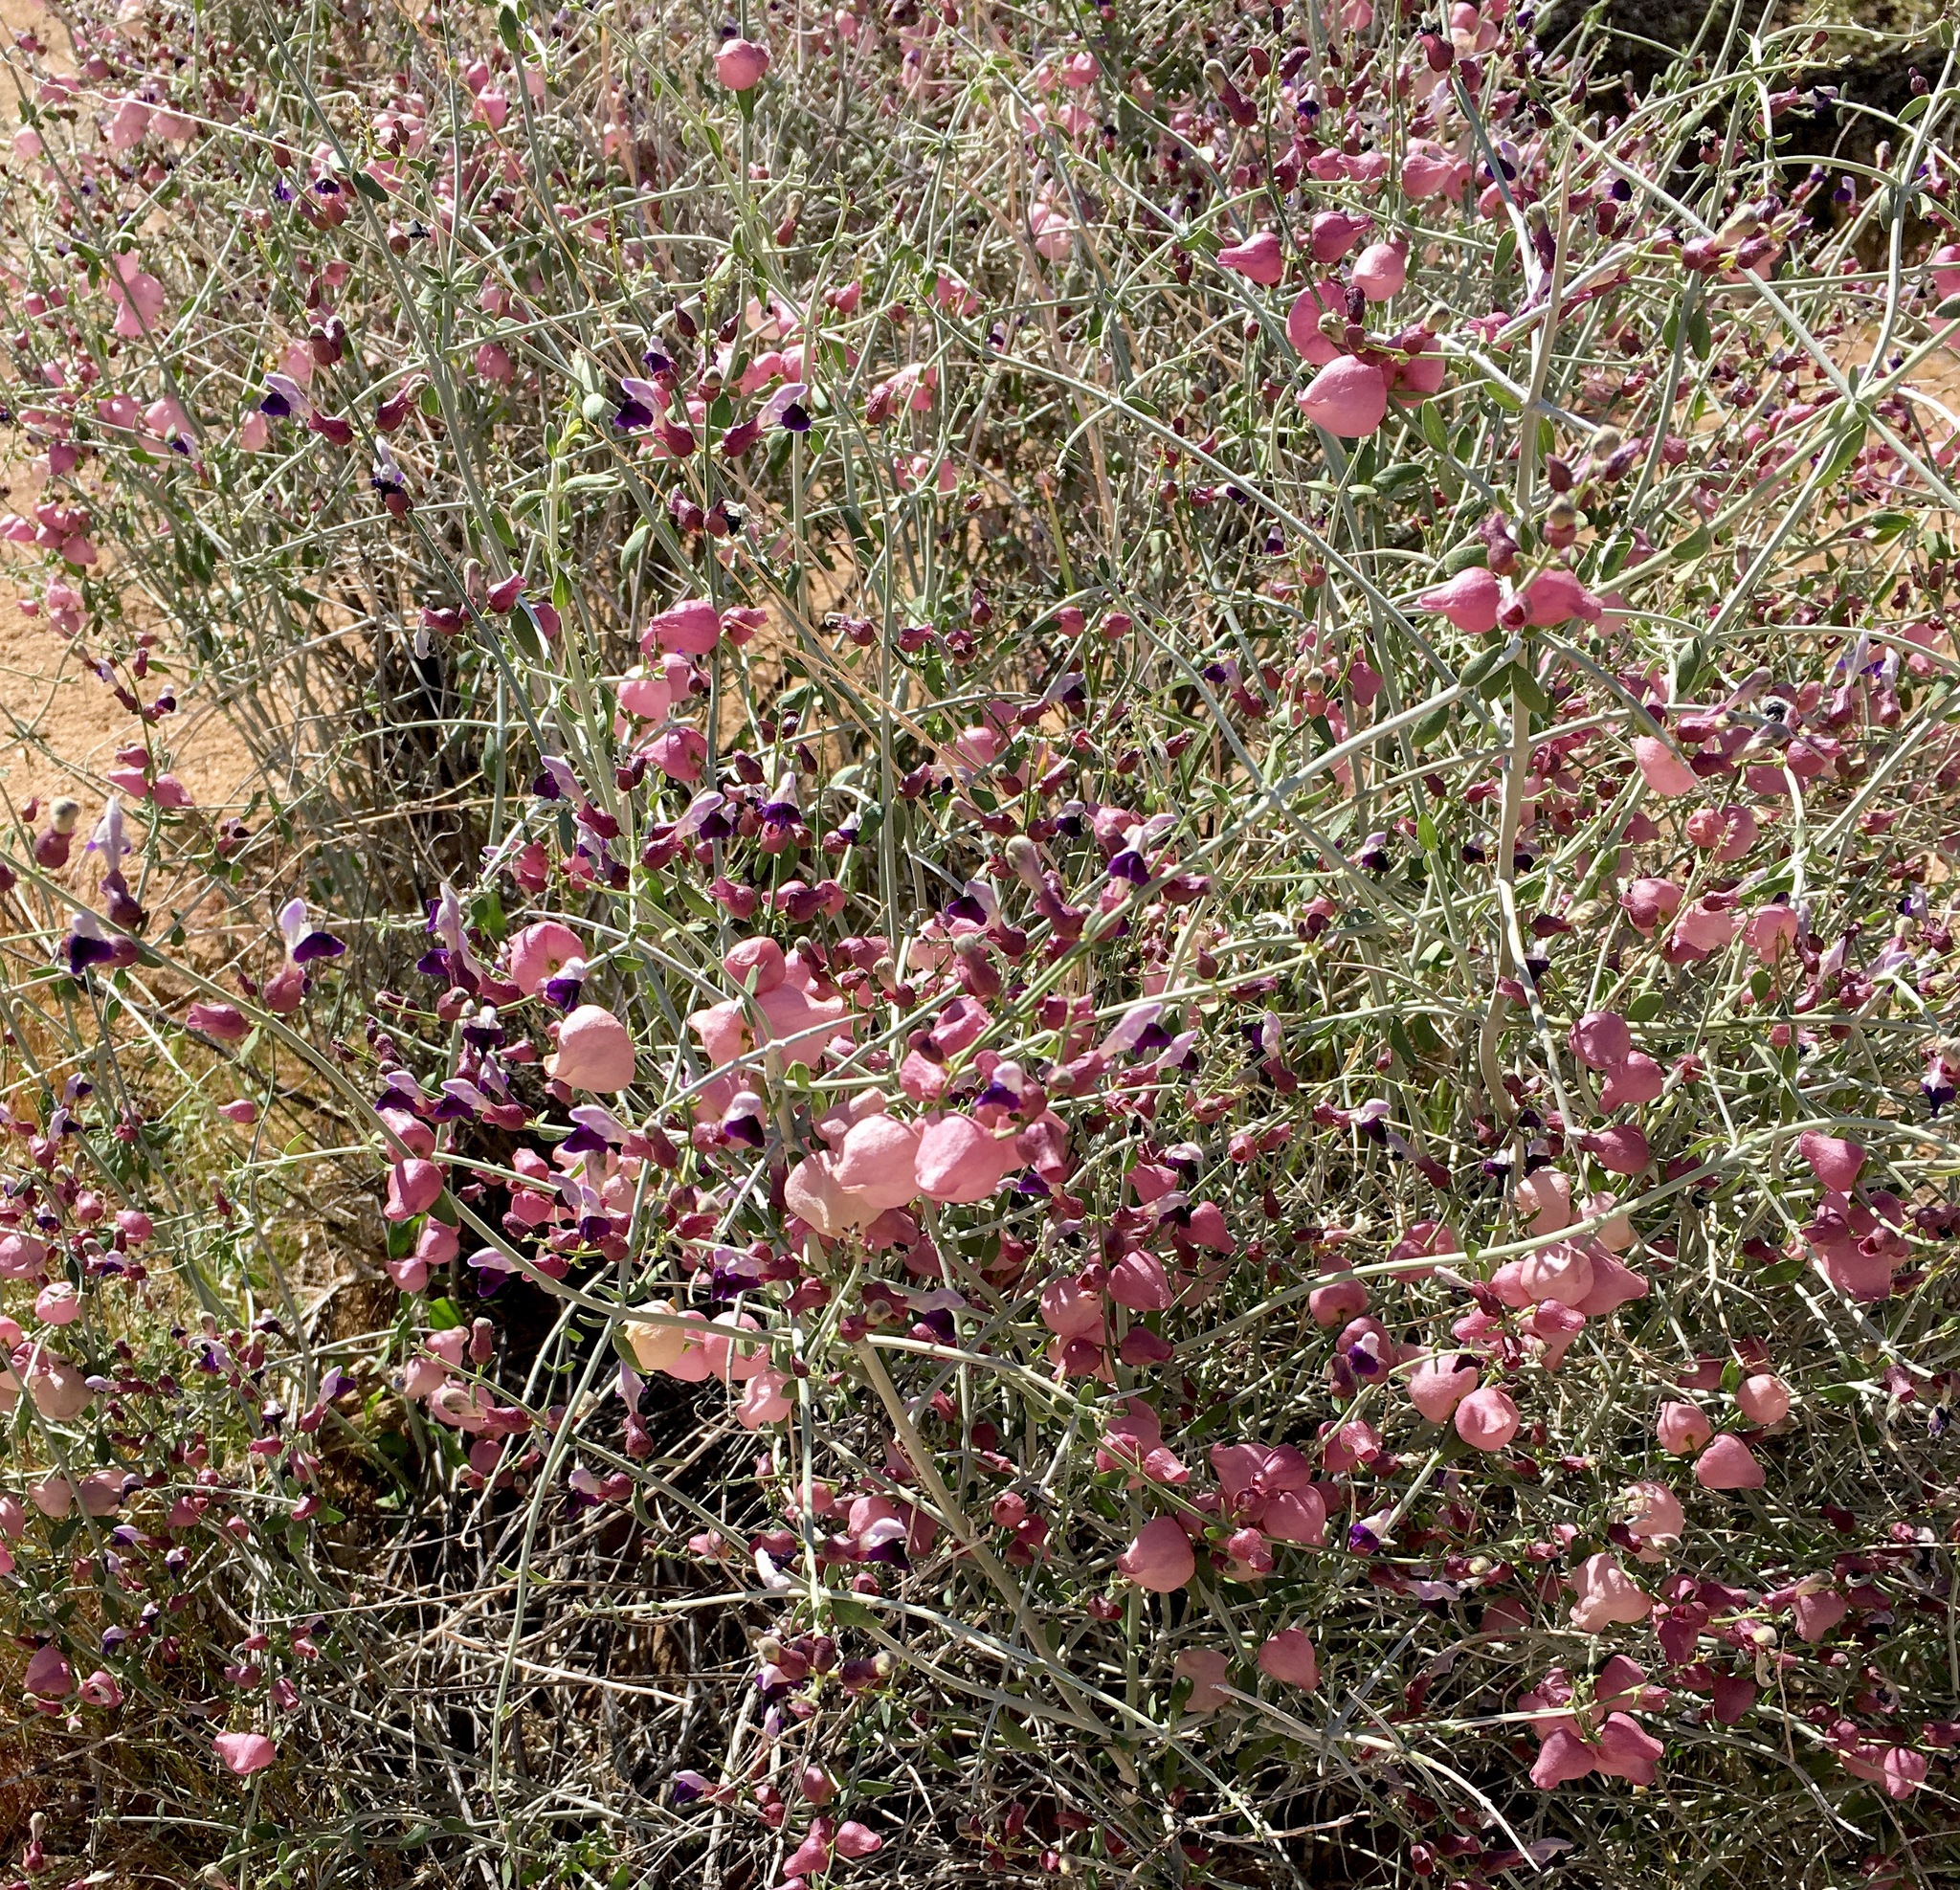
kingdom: Plantae
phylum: Tracheophyta
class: Magnoliopsida
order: Lamiales
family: Lamiaceae
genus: Scutellaria
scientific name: Scutellaria mexicana
